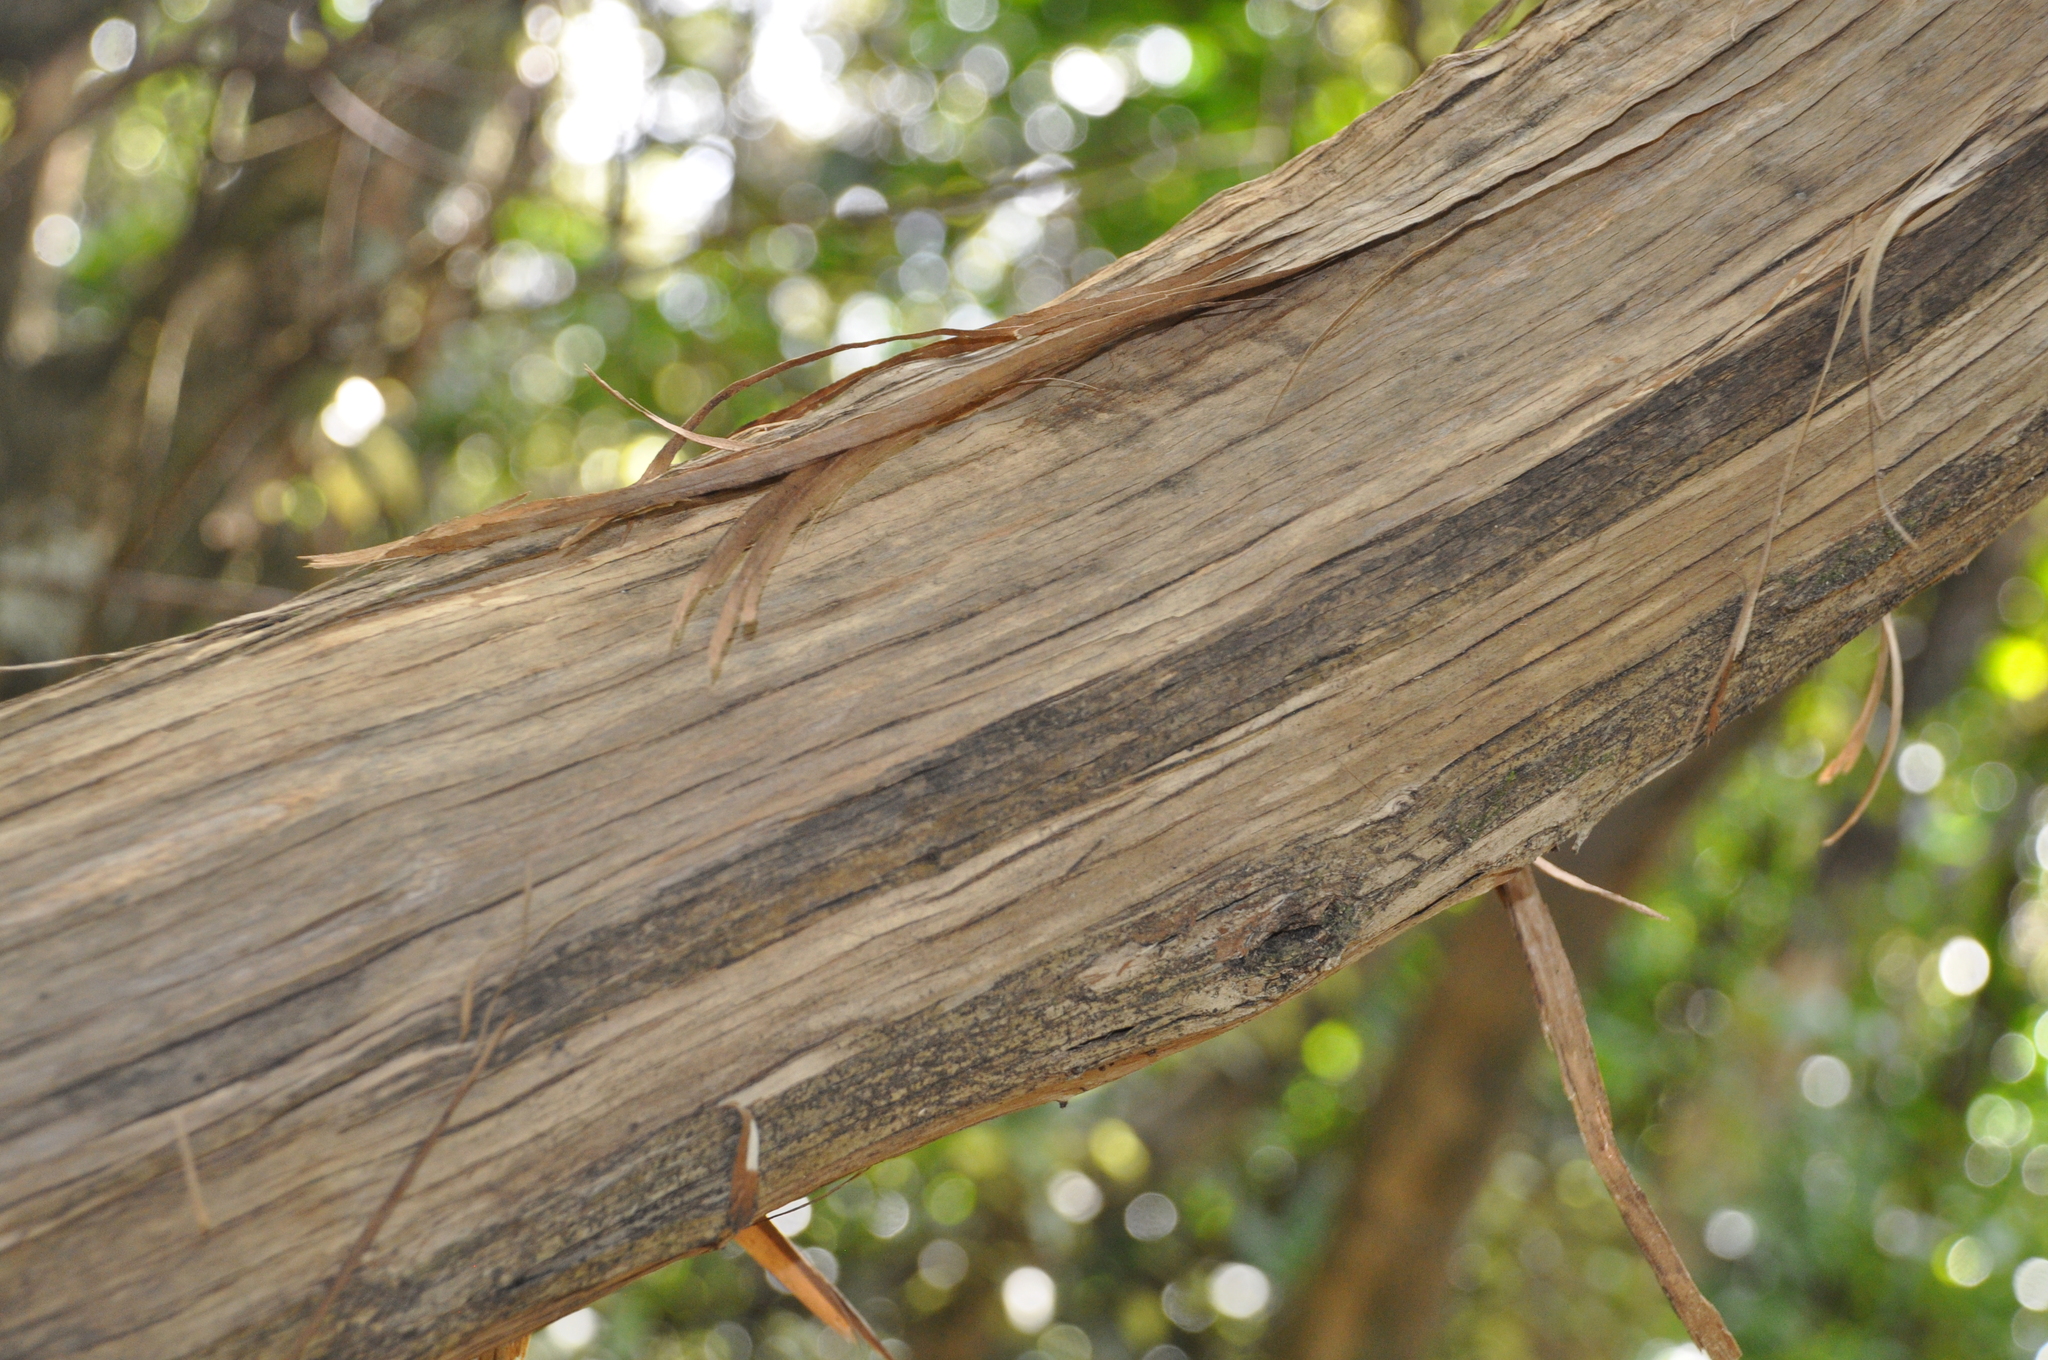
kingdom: Plantae
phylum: Tracheophyta
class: Magnoliopsida
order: Asterales
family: Asteraceae
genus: Olearia
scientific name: Olearia paniculata
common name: Akiraho
